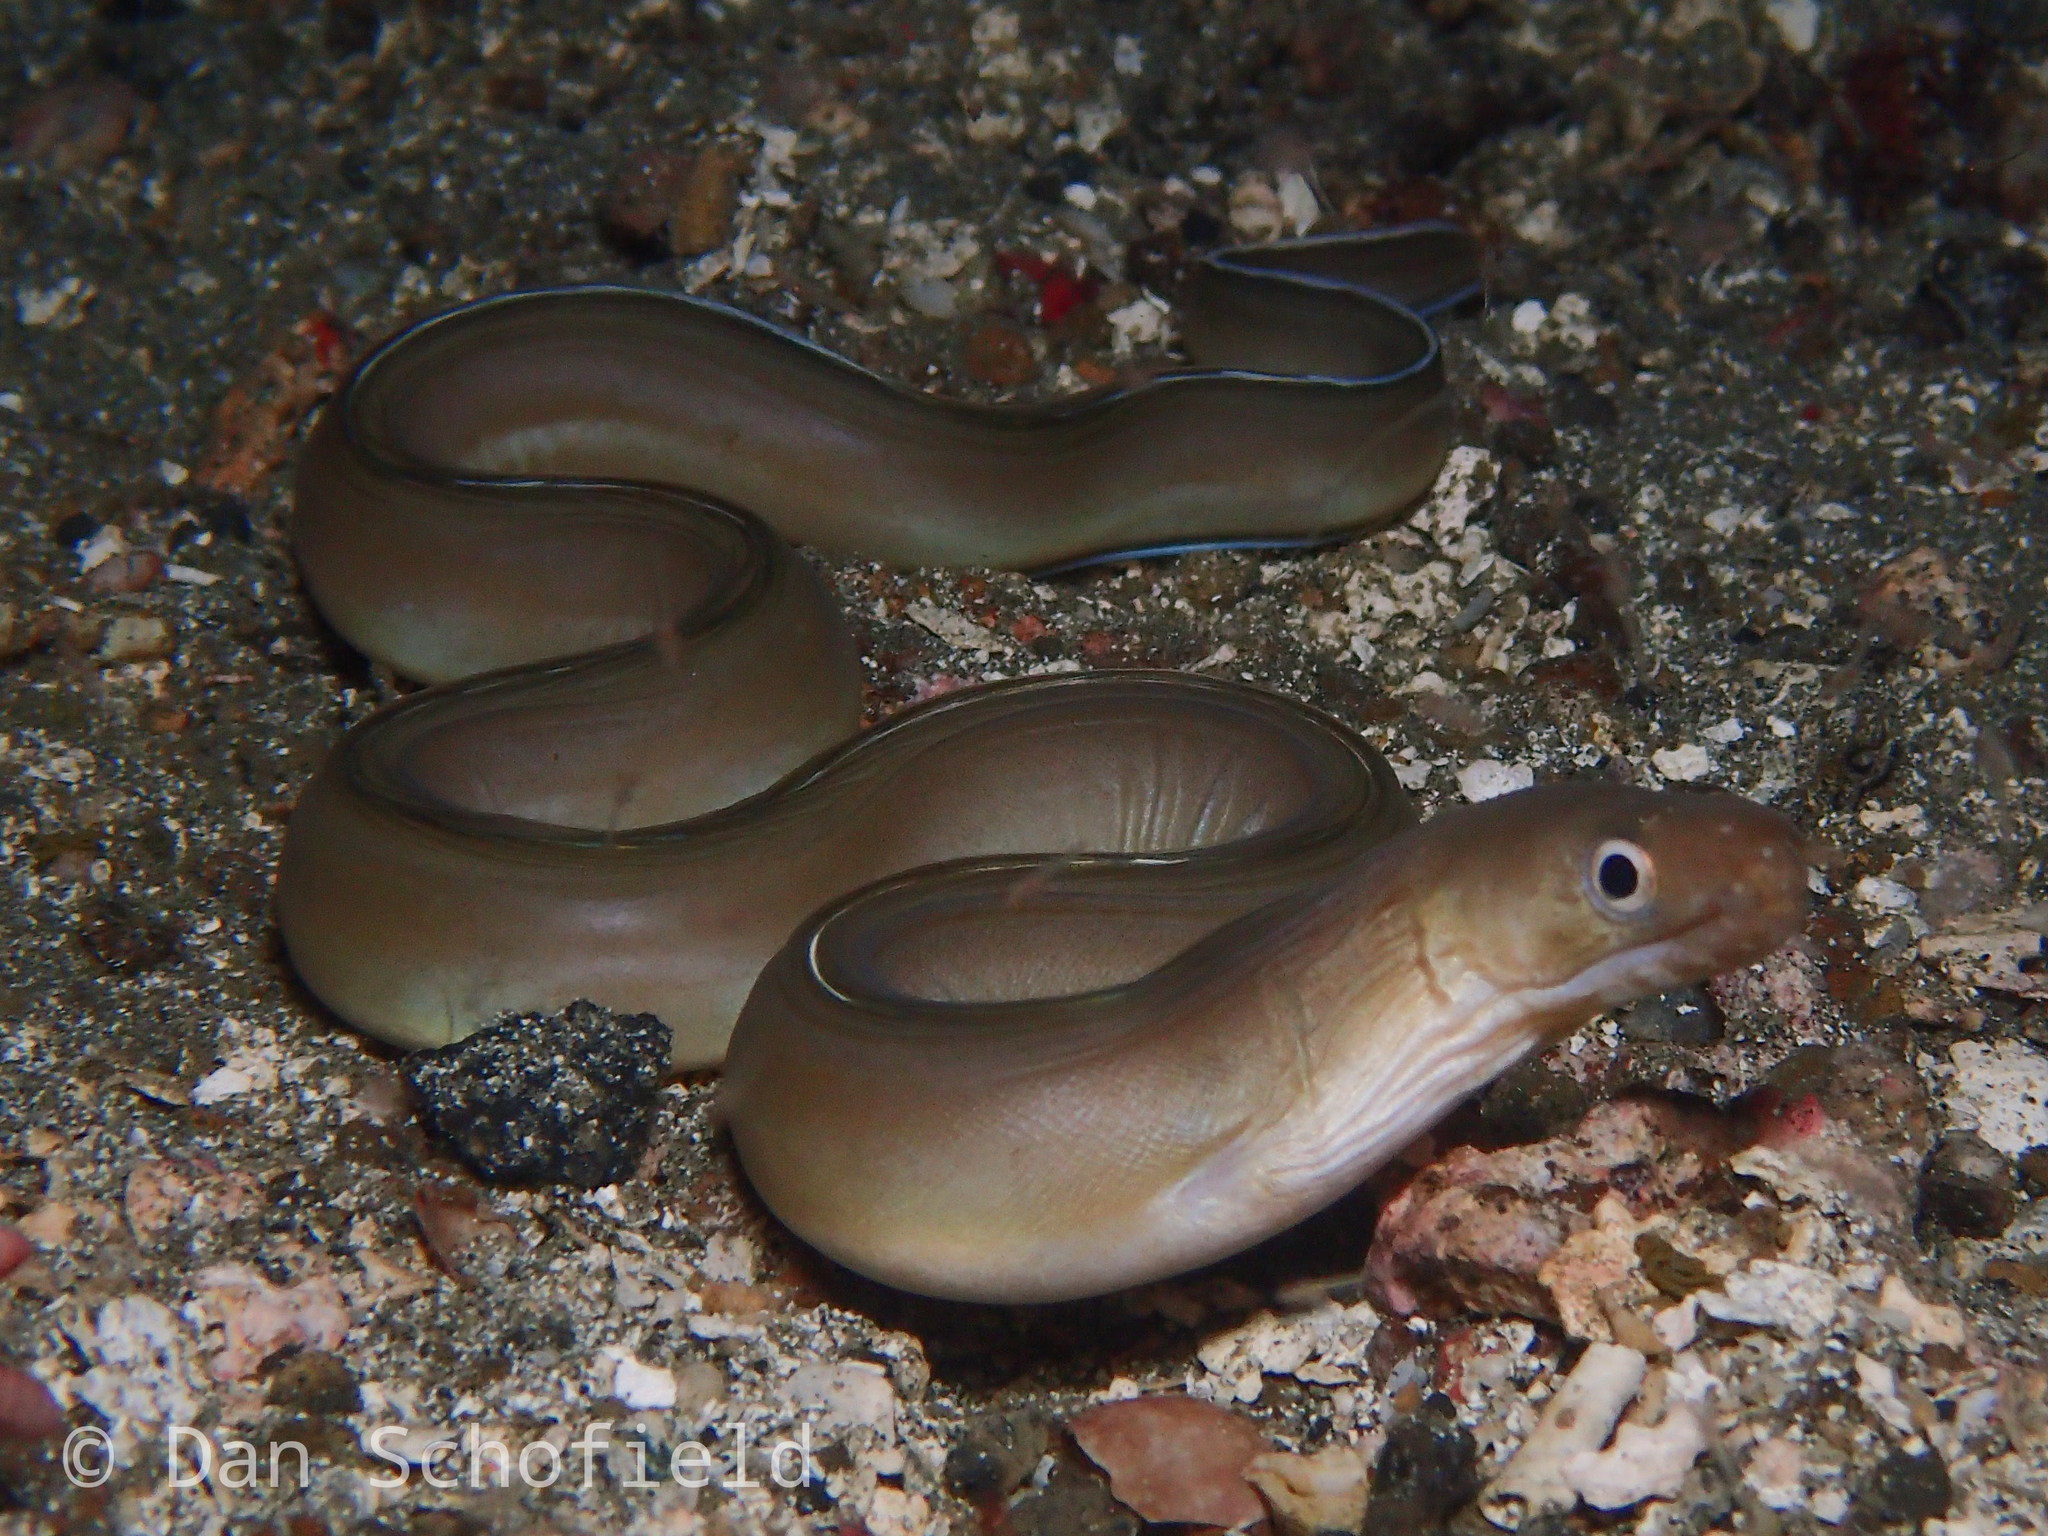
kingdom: Animalia
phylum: Chordata
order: Anguilliformes
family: Muraenidae
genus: Gymnothorax
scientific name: Gymnothorax albimarginatus
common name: Whitemargin moray
